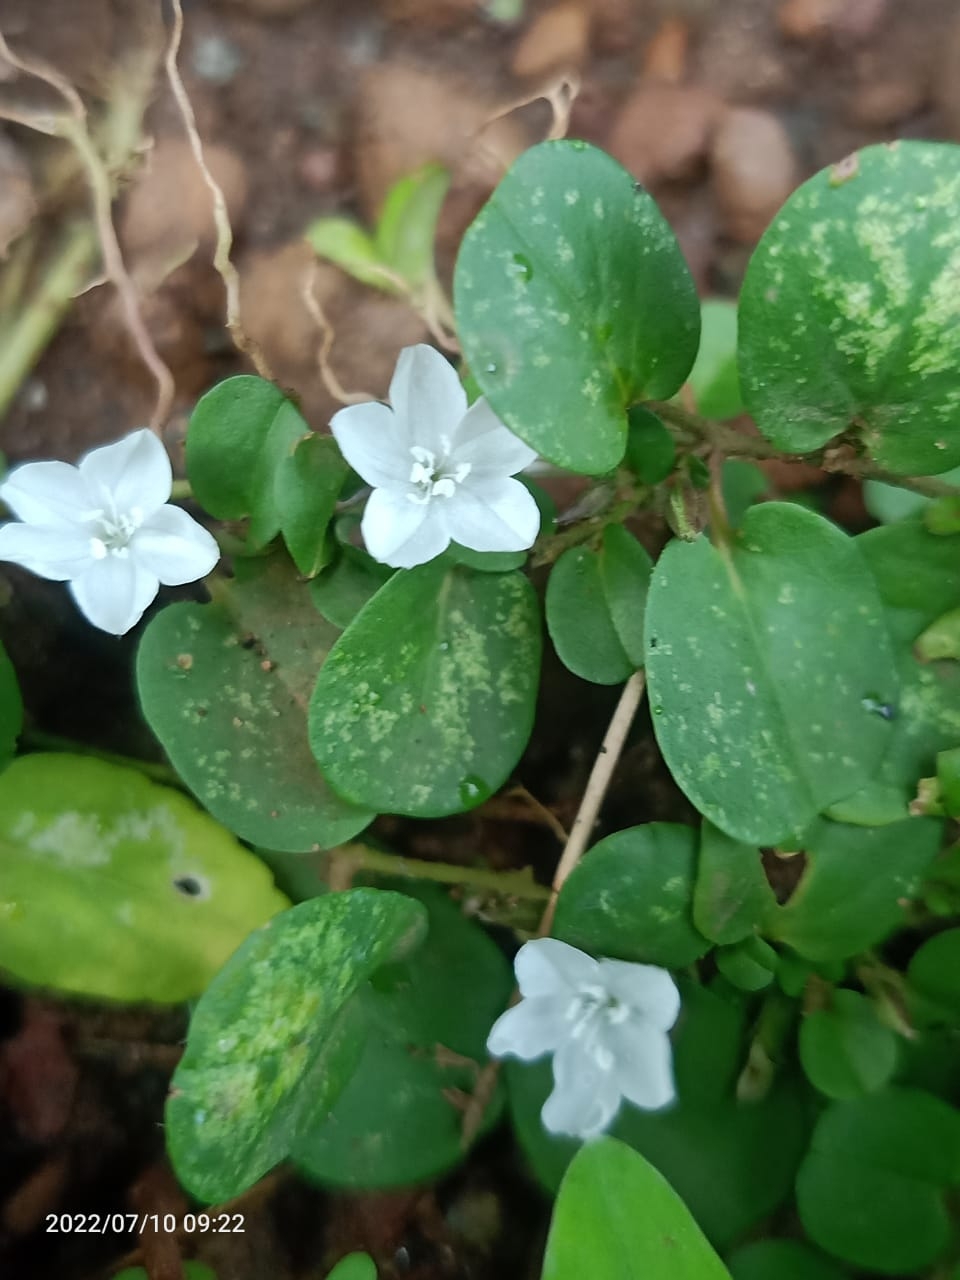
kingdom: Plantae
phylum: Tracheophyta
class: Magnoliopsida
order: Solanales
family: Convolvulaceae
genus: Evolvulus
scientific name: Evolvulus nummularius
